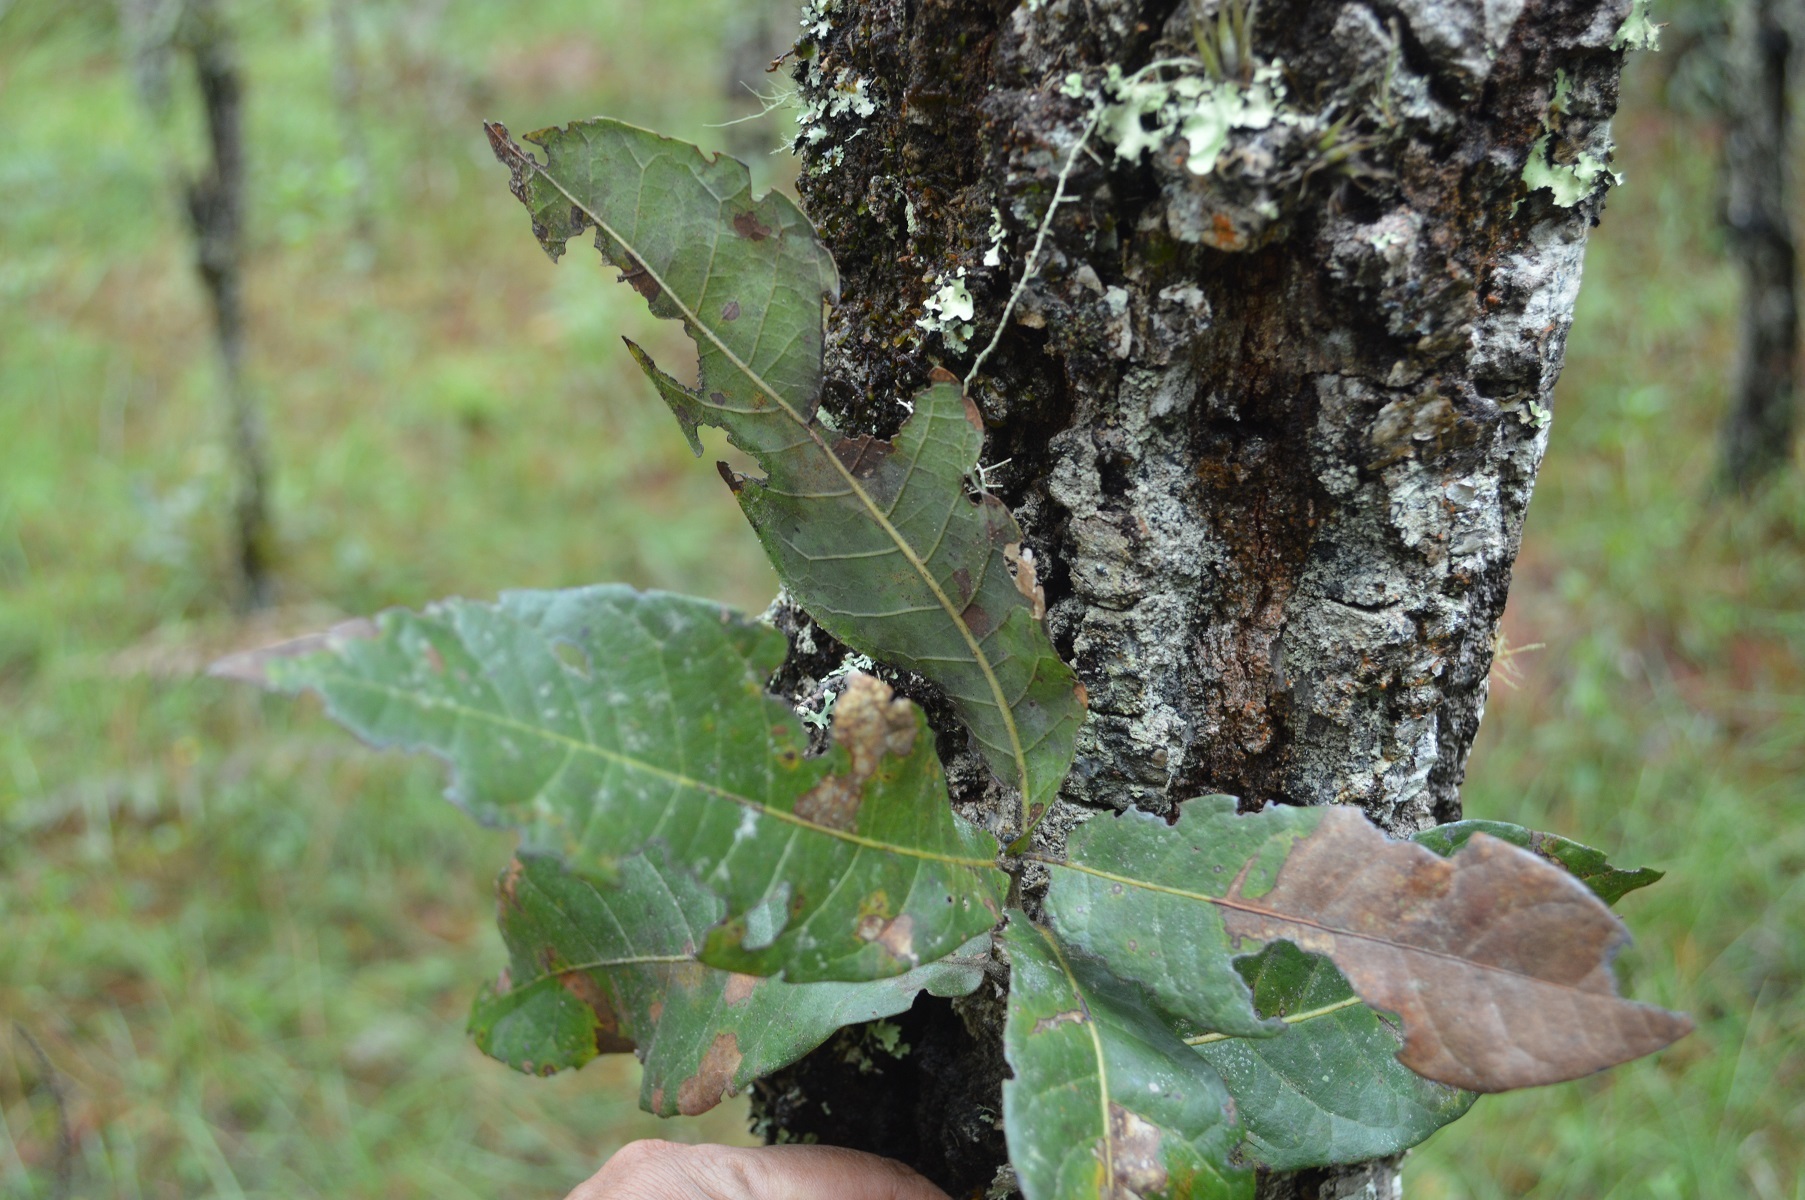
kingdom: Plantae
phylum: Tracheophyta
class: Magnoliopsida
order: Fagales
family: Fagaceae
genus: Quercus
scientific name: Quercus crispifolia
